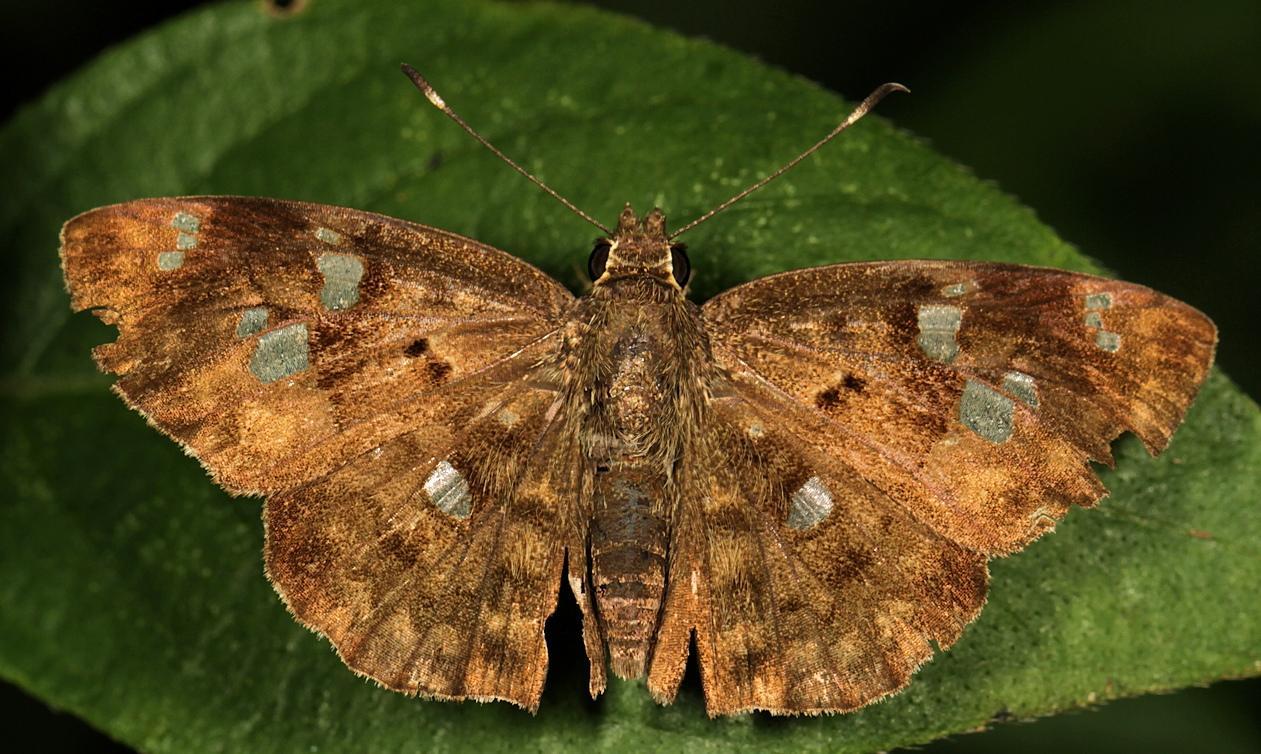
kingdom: Animalia
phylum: Arthropoda
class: Insecta
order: Lepidoptera
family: Hesperiidae
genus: Sarangesa
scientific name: Sarangesa motozi
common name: Forest elfin
